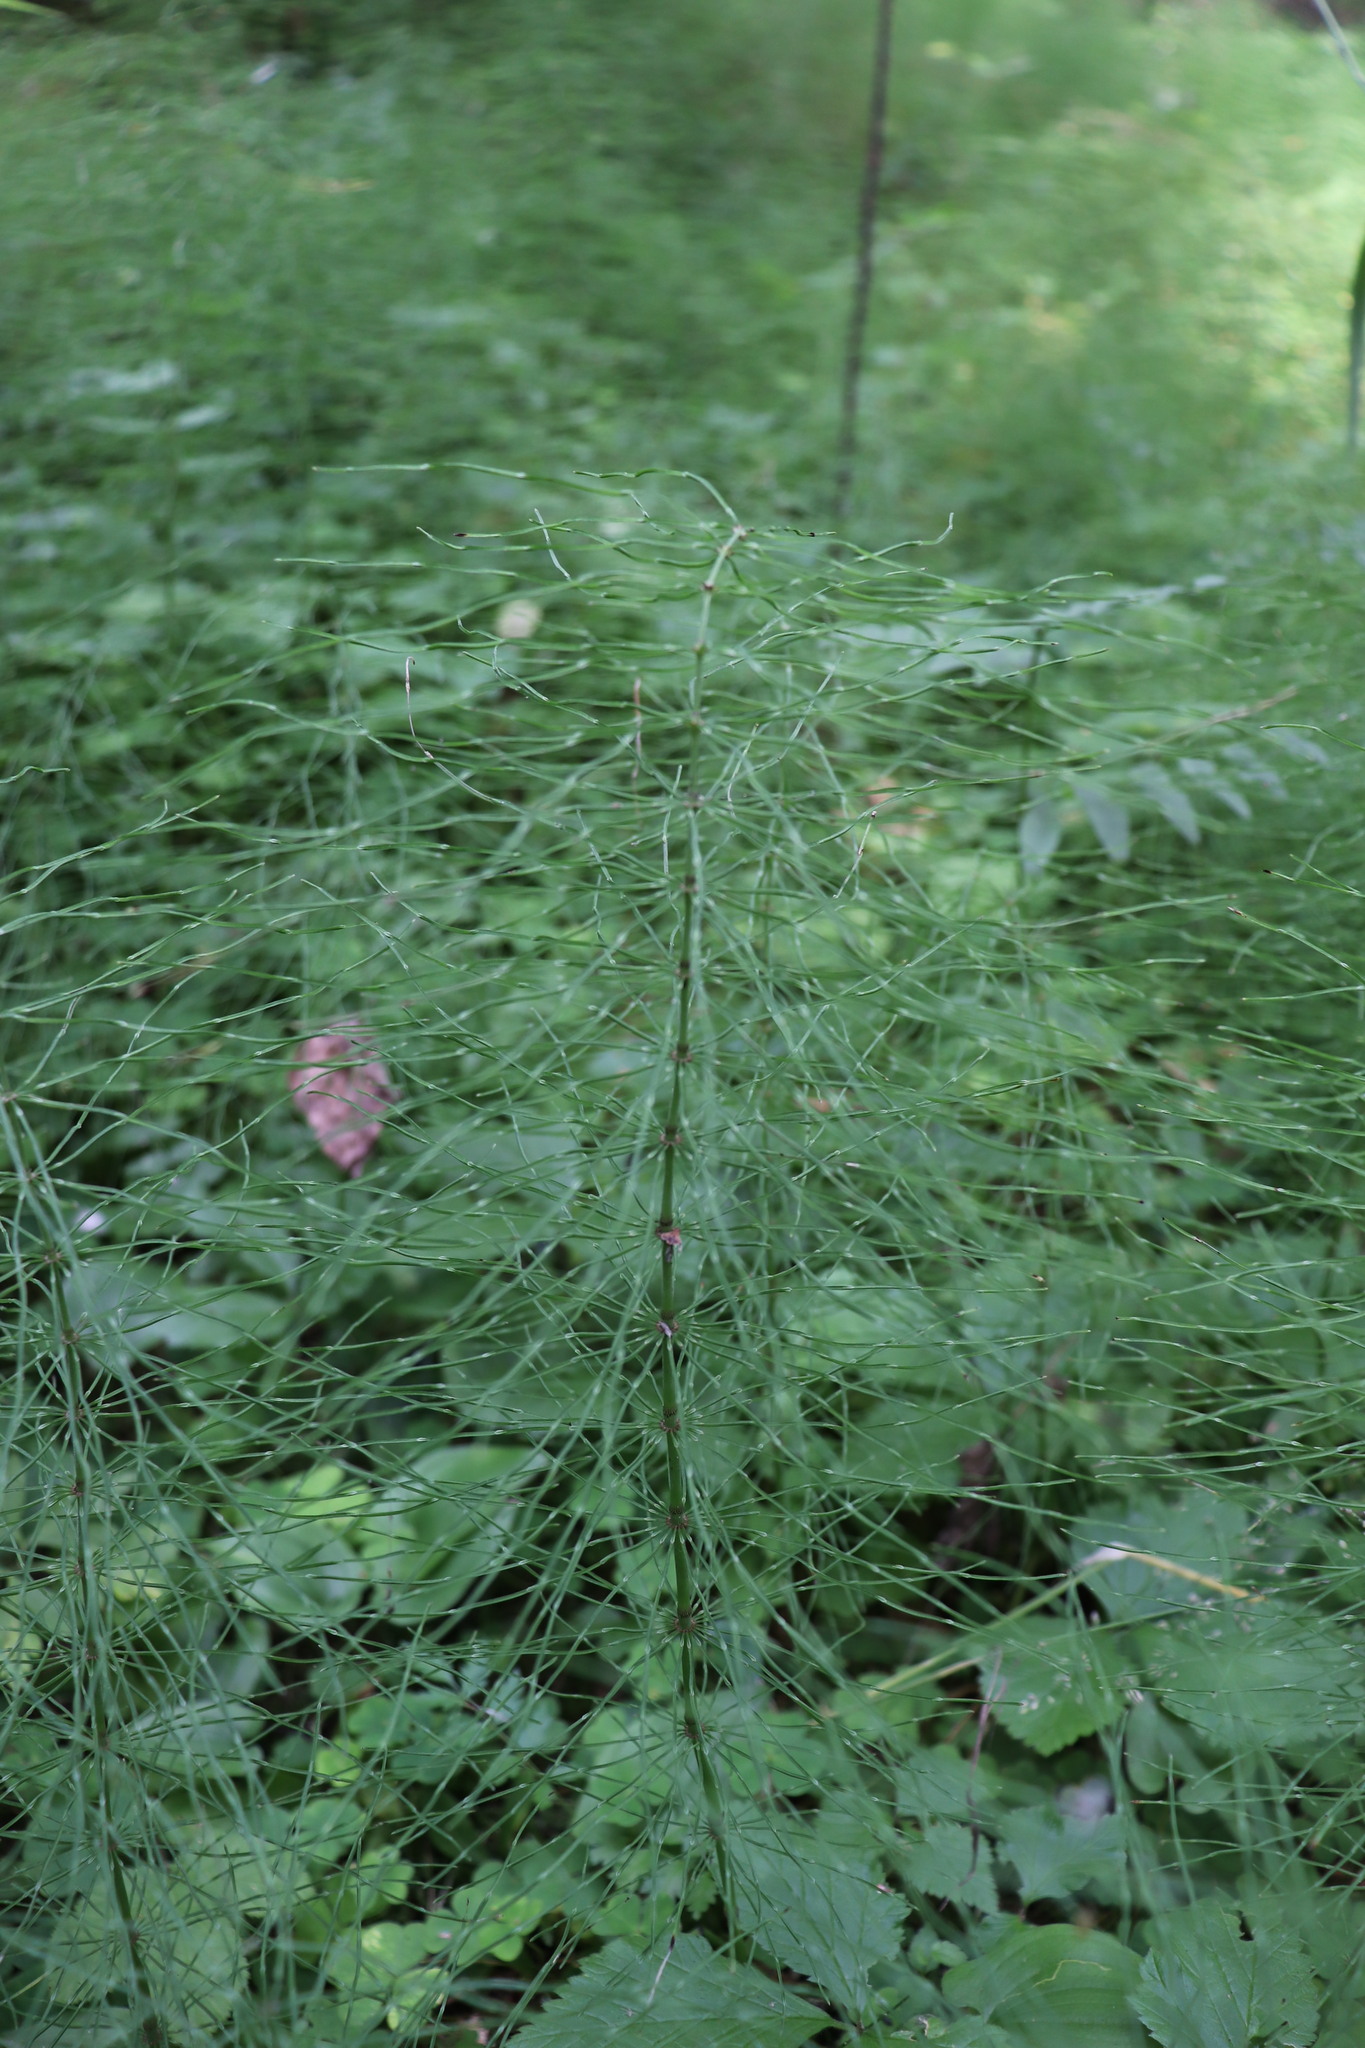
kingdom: Plantae
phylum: Tracheophyta
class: Polypodiopsida
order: Equisetales
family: Equisetaceae
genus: Equisetum
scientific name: Equisetum pratense
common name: Meadow horsetail
